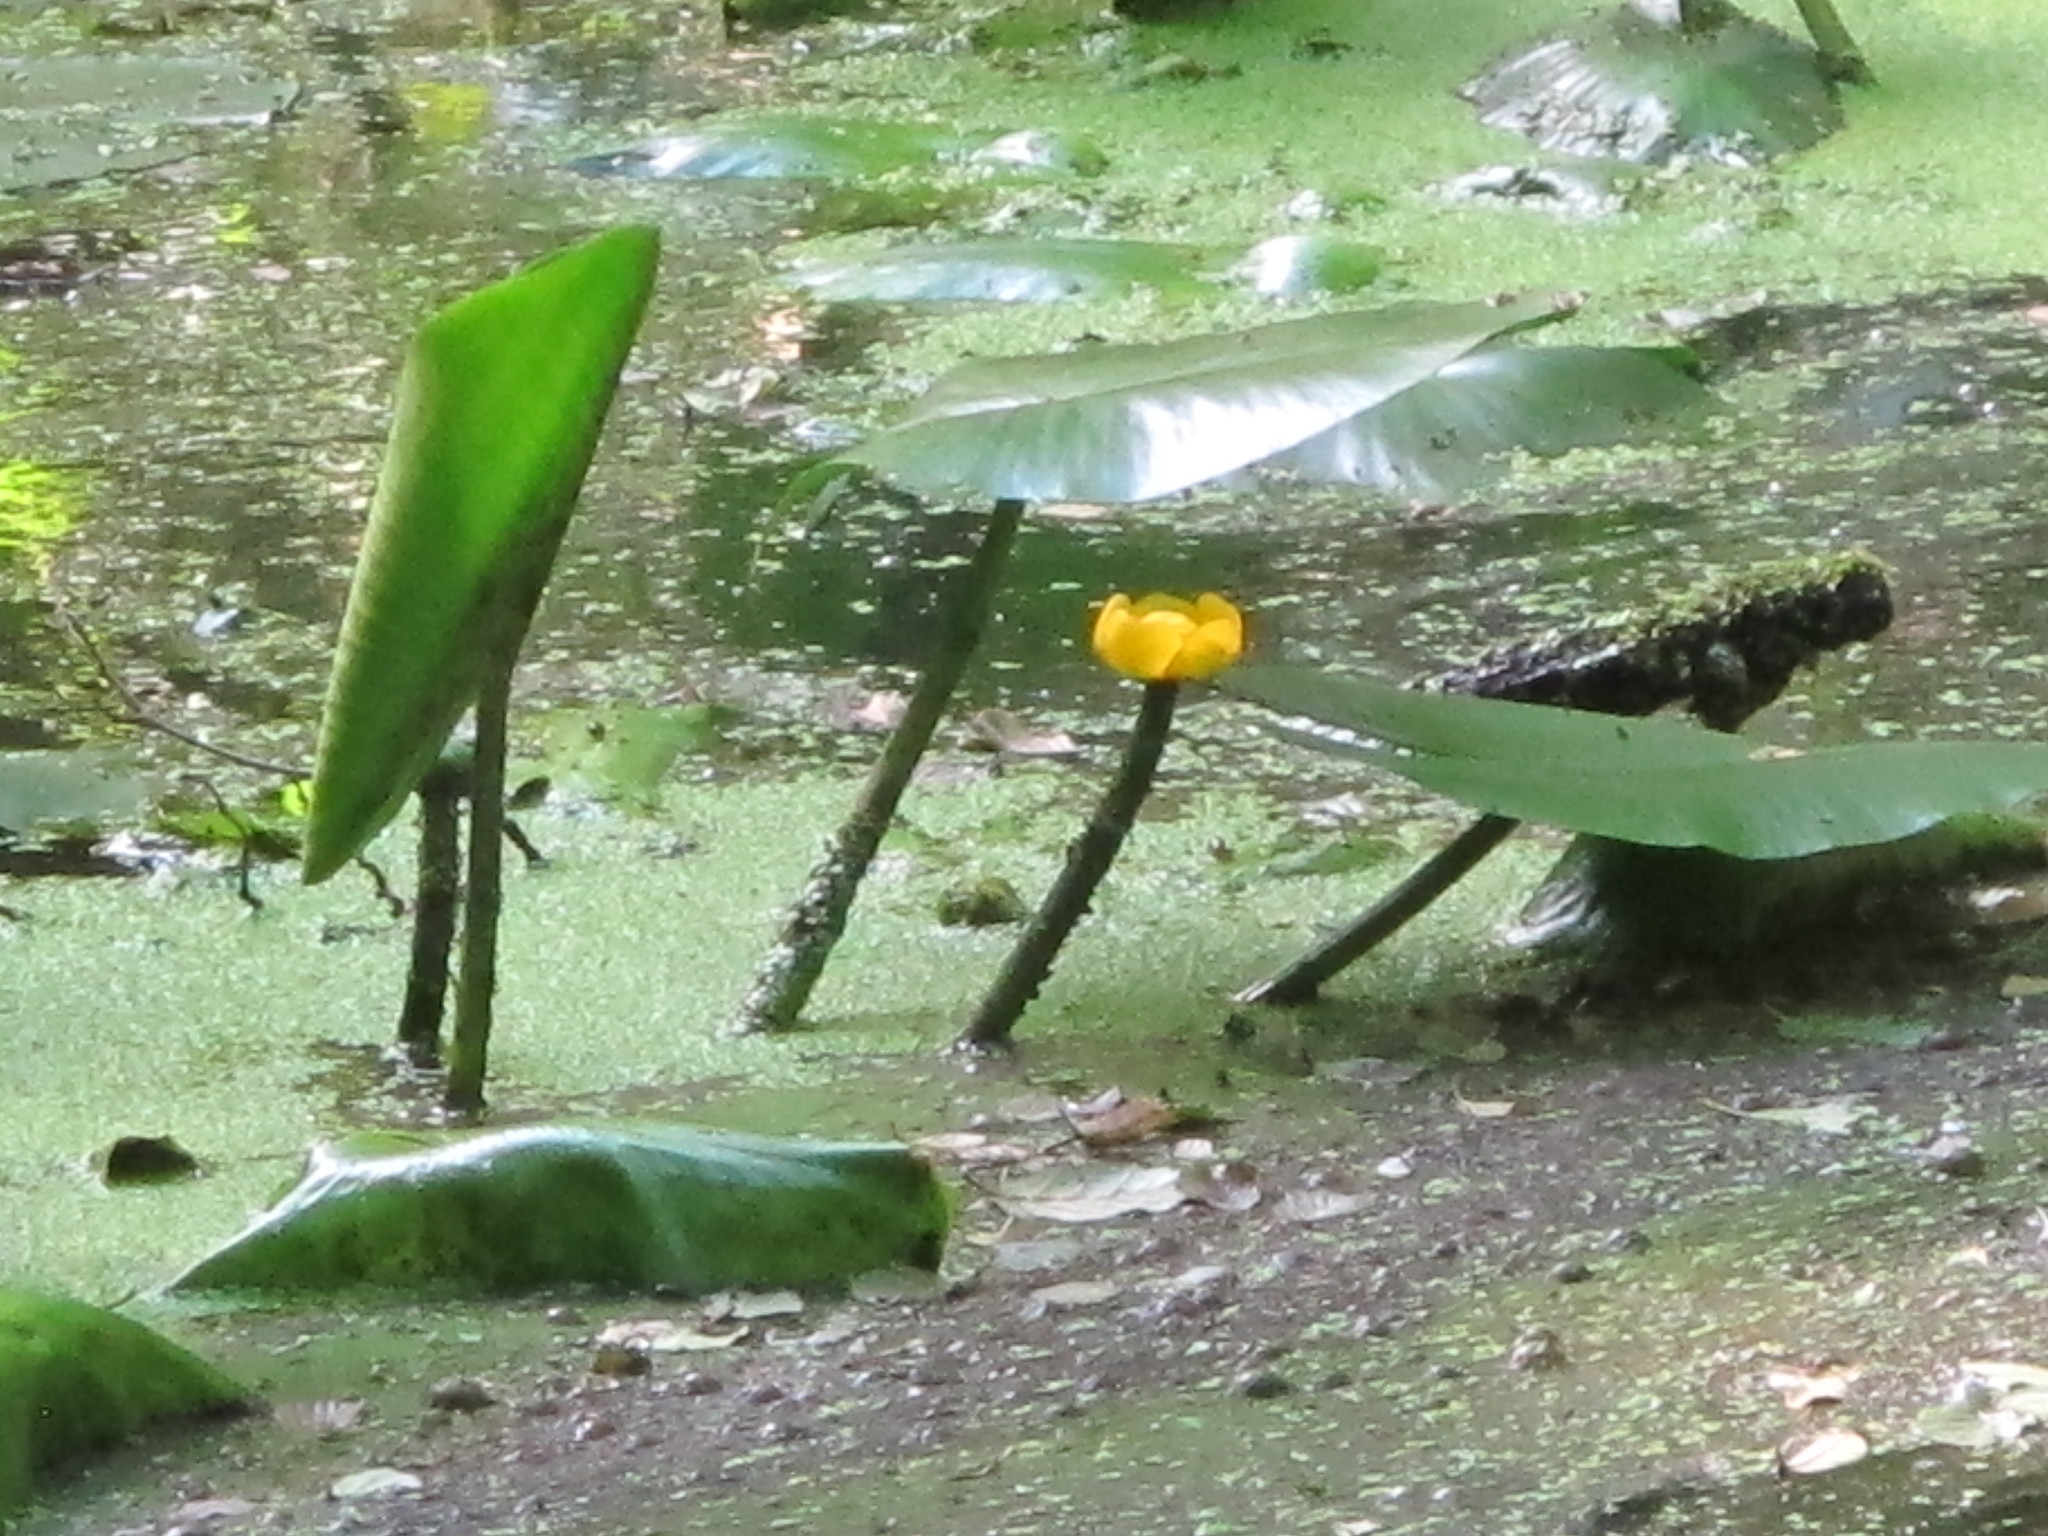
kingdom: Plantae
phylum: Tracheophyta
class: Magnoliopsida
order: Nymphaeales
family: Nymphaeaceae
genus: Nuphar
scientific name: Nuphar lutea
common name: Yellow water-lily
